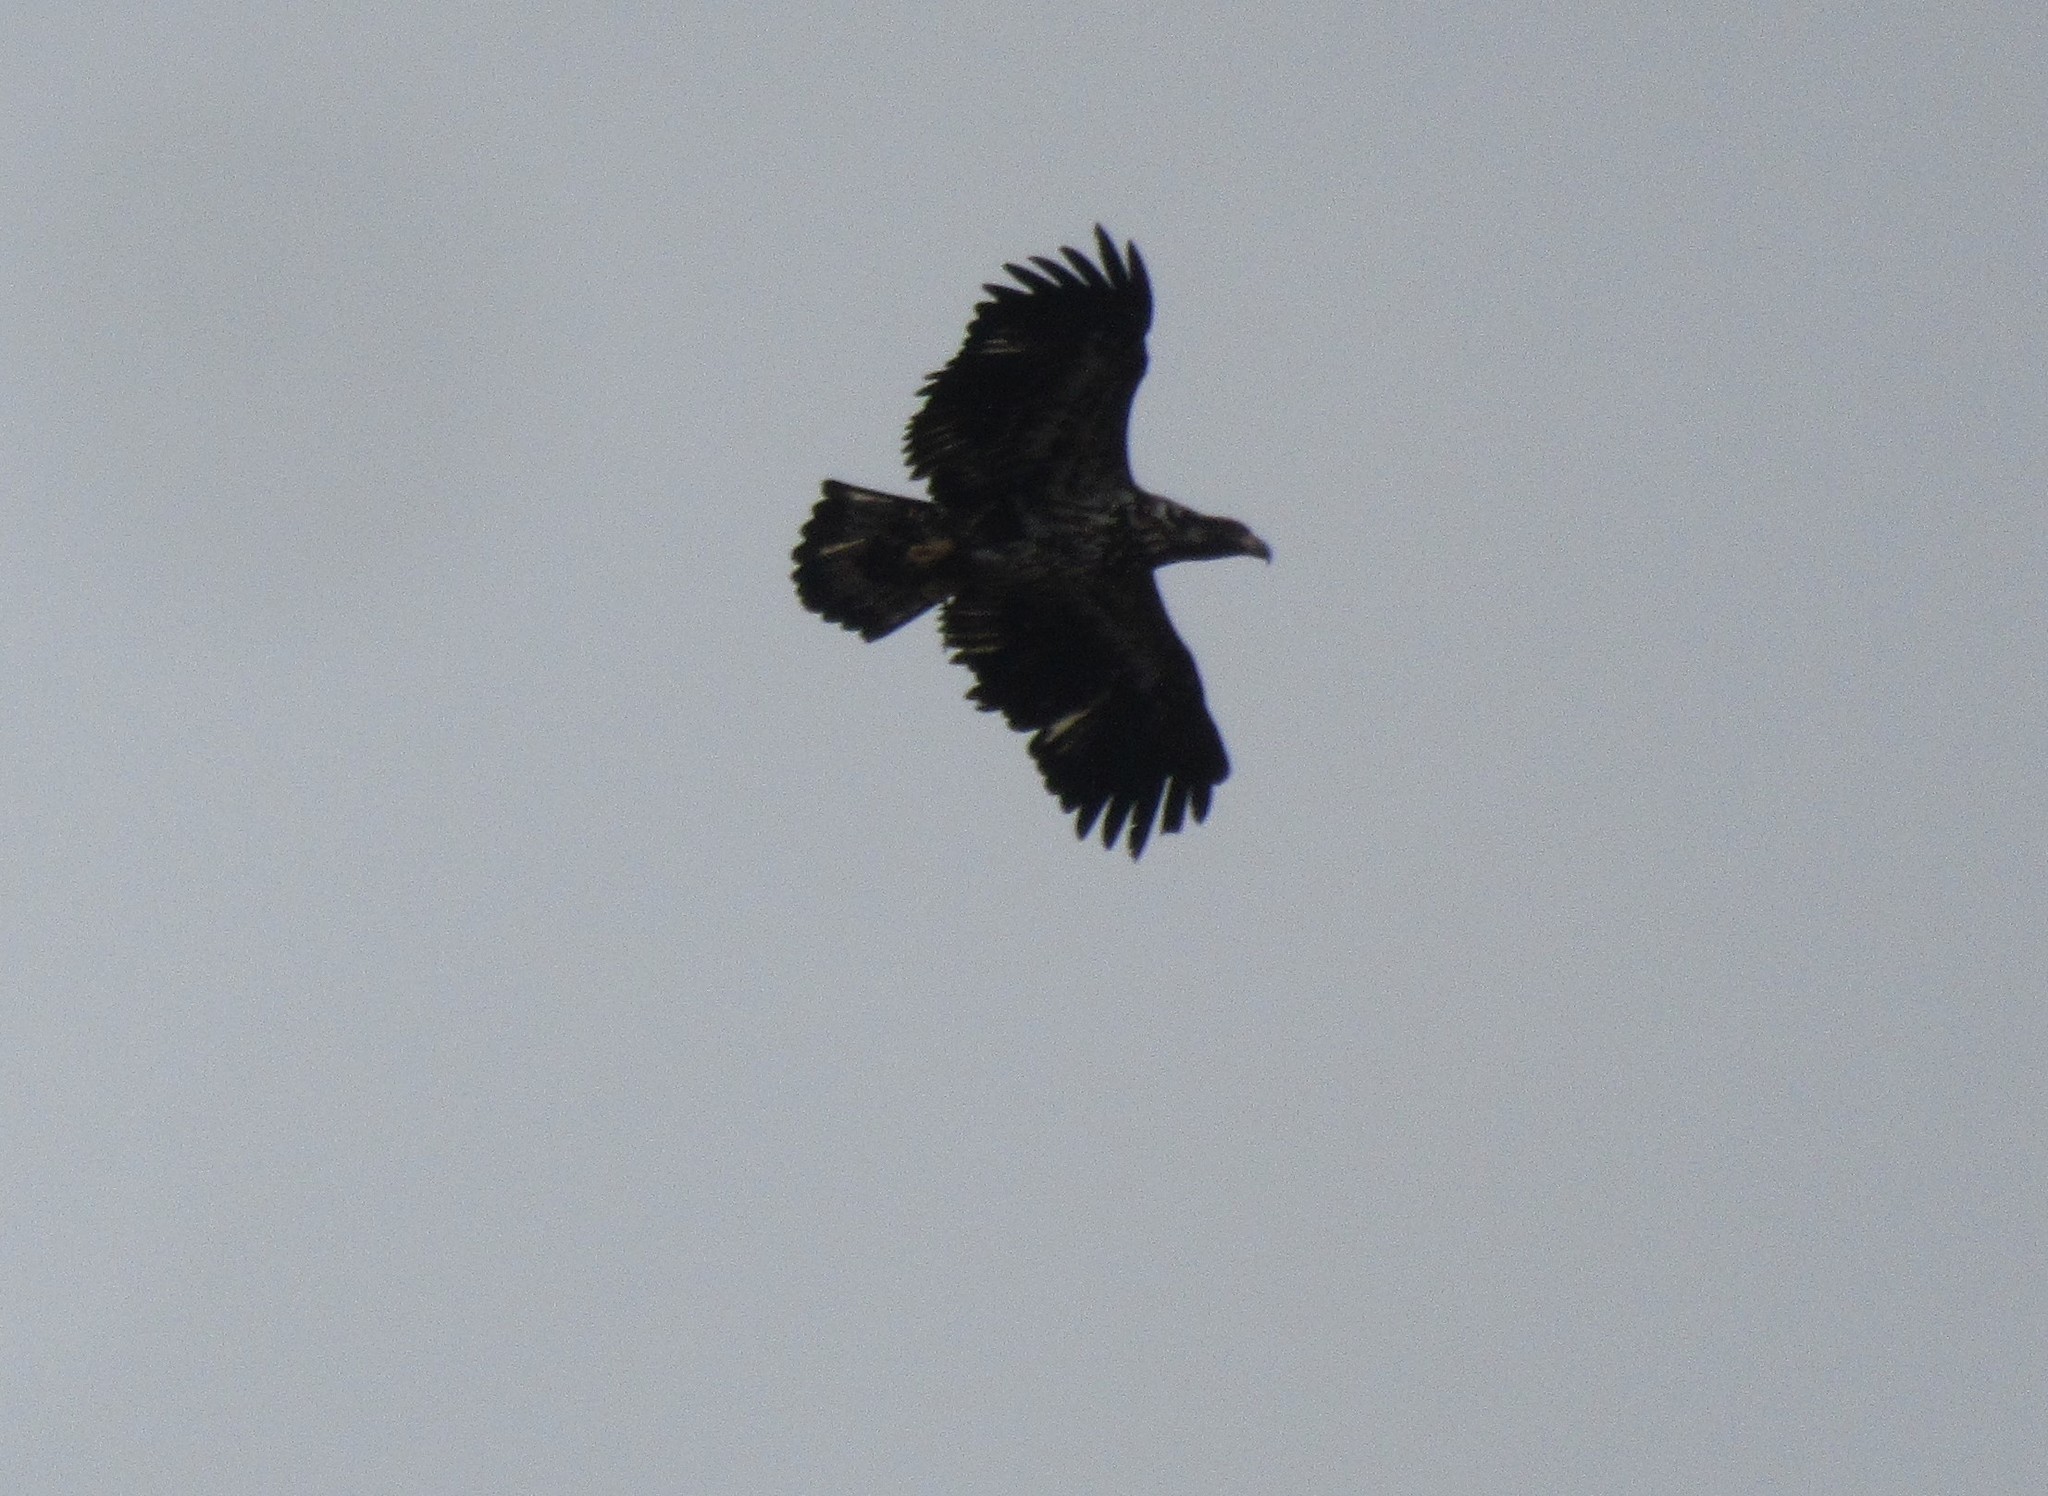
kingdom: Animalia
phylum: Chordata
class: Aves
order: Accipitriformes
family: Accipitridae
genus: Haliaeetus
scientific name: Haliaeetus leucocephalus
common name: Bald eagle
